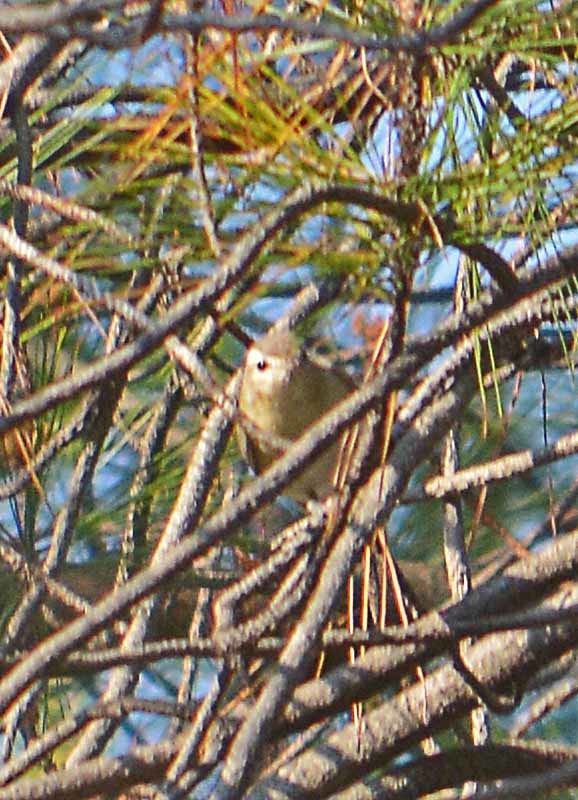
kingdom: Animalia
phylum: Chordata
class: Aves
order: Passeriformes
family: Vireonidae
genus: Vireo
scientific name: Vireo gilvus
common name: Warbling vireo
